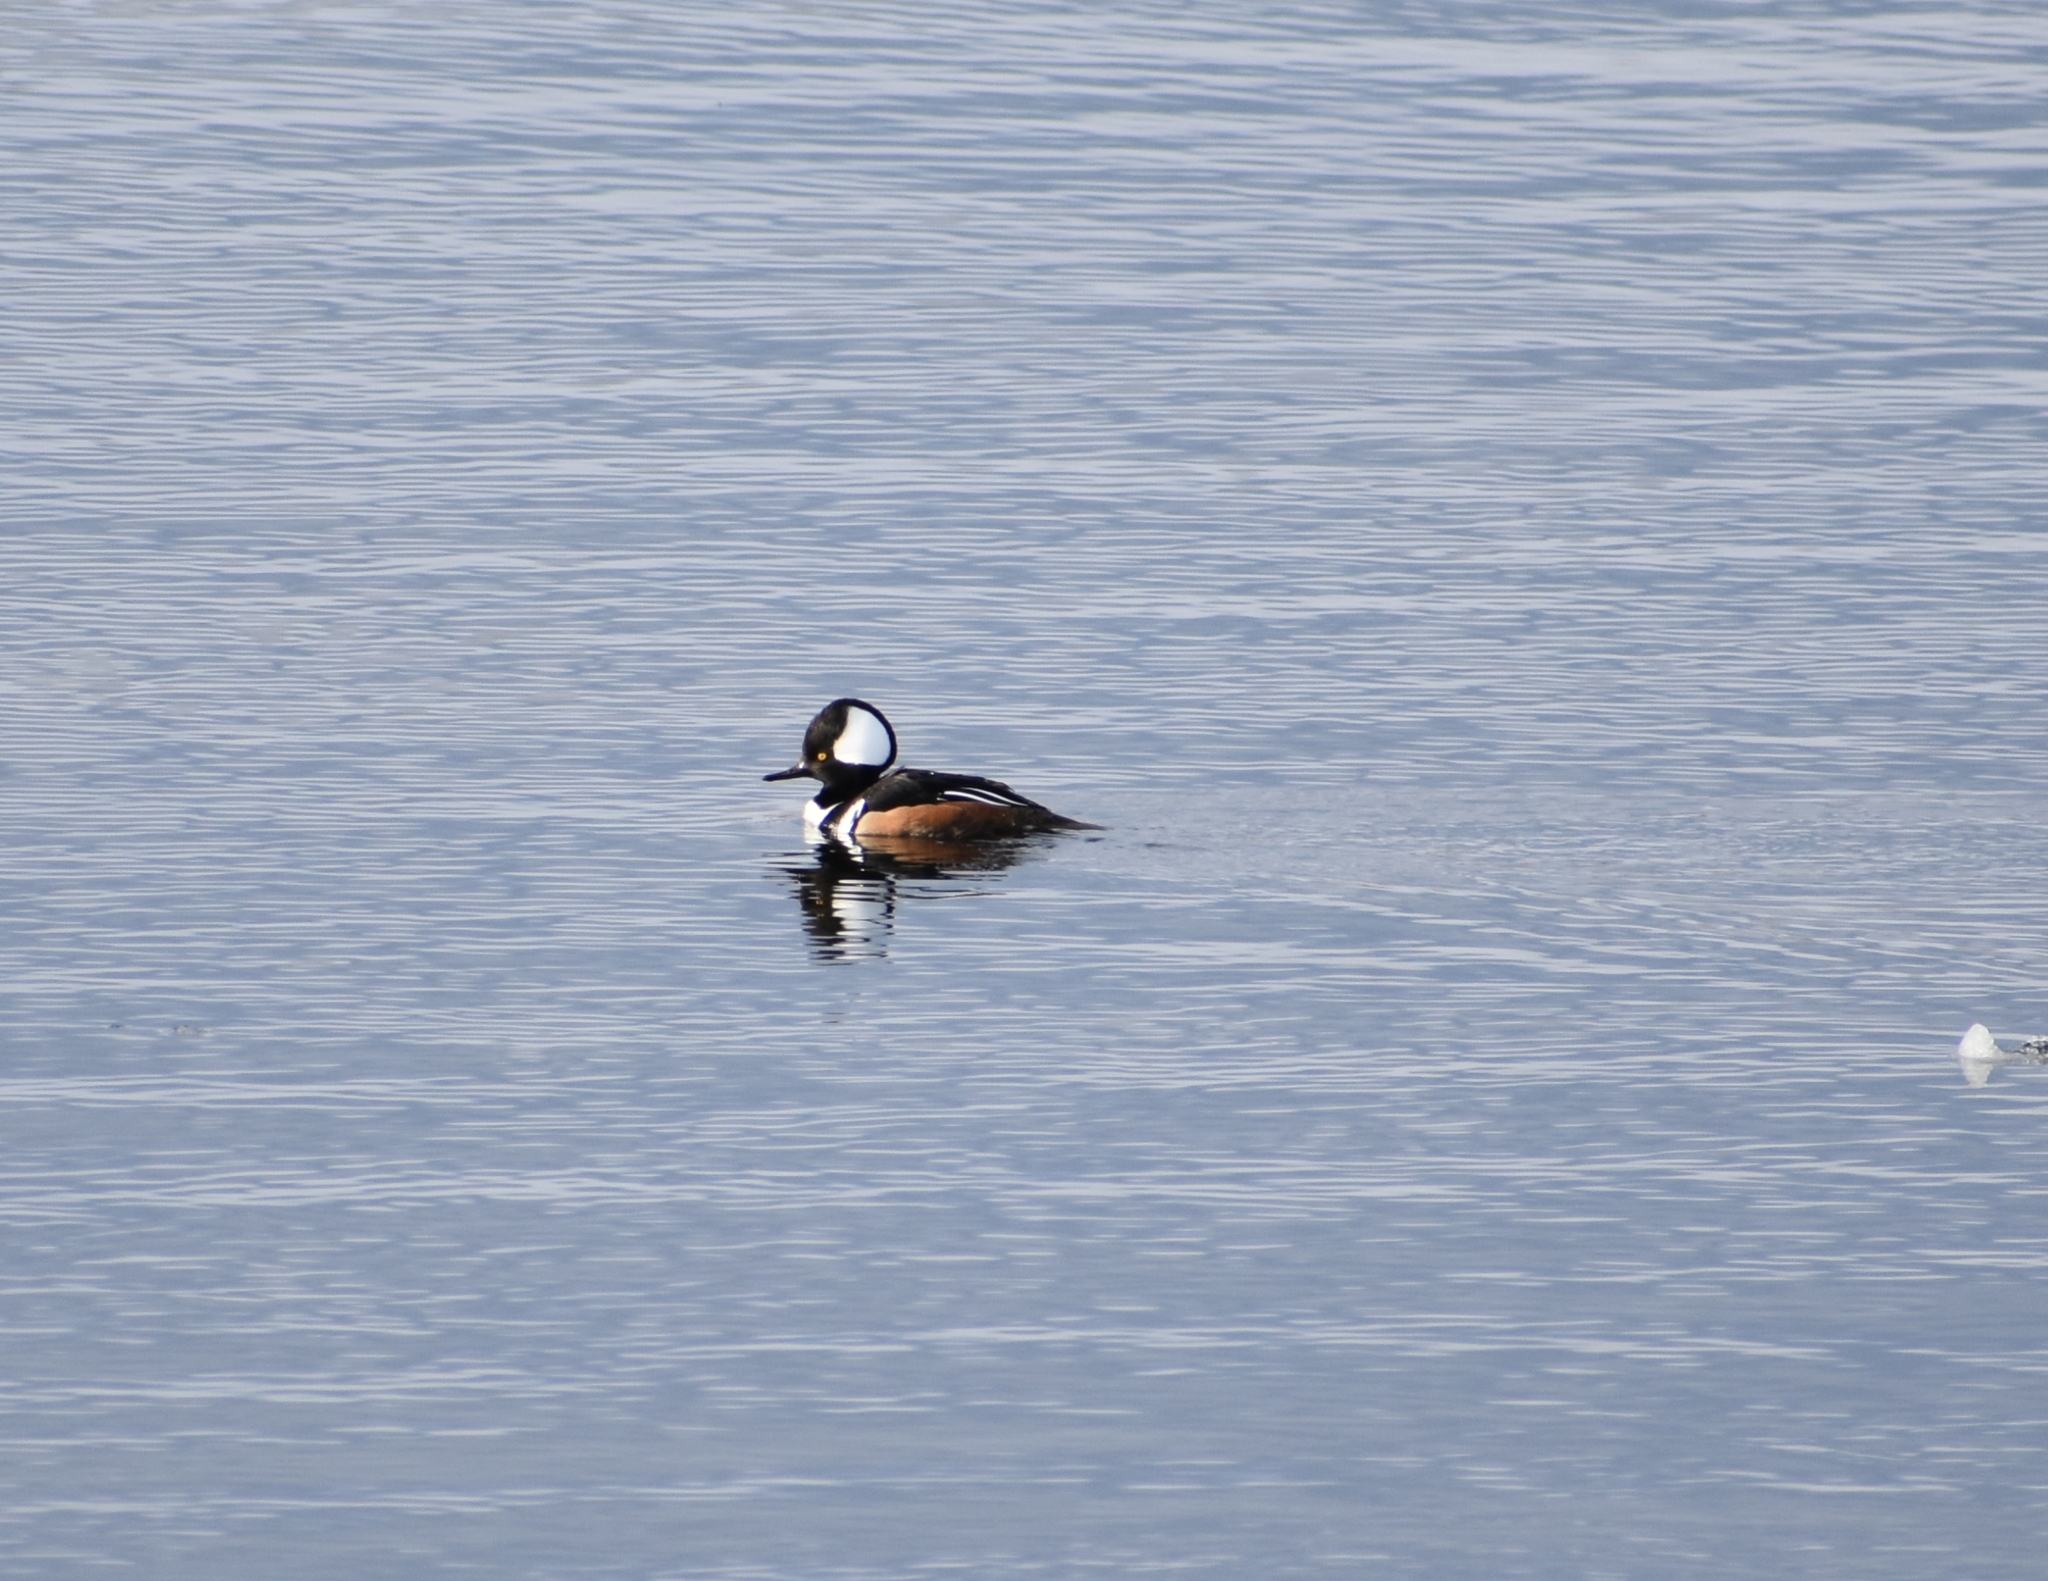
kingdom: Animalia
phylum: Chordata
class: Aves
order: Anseriformes
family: Anatidae
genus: Lophodytes
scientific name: Lophodytes cucullatus
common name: Hooded merganser
